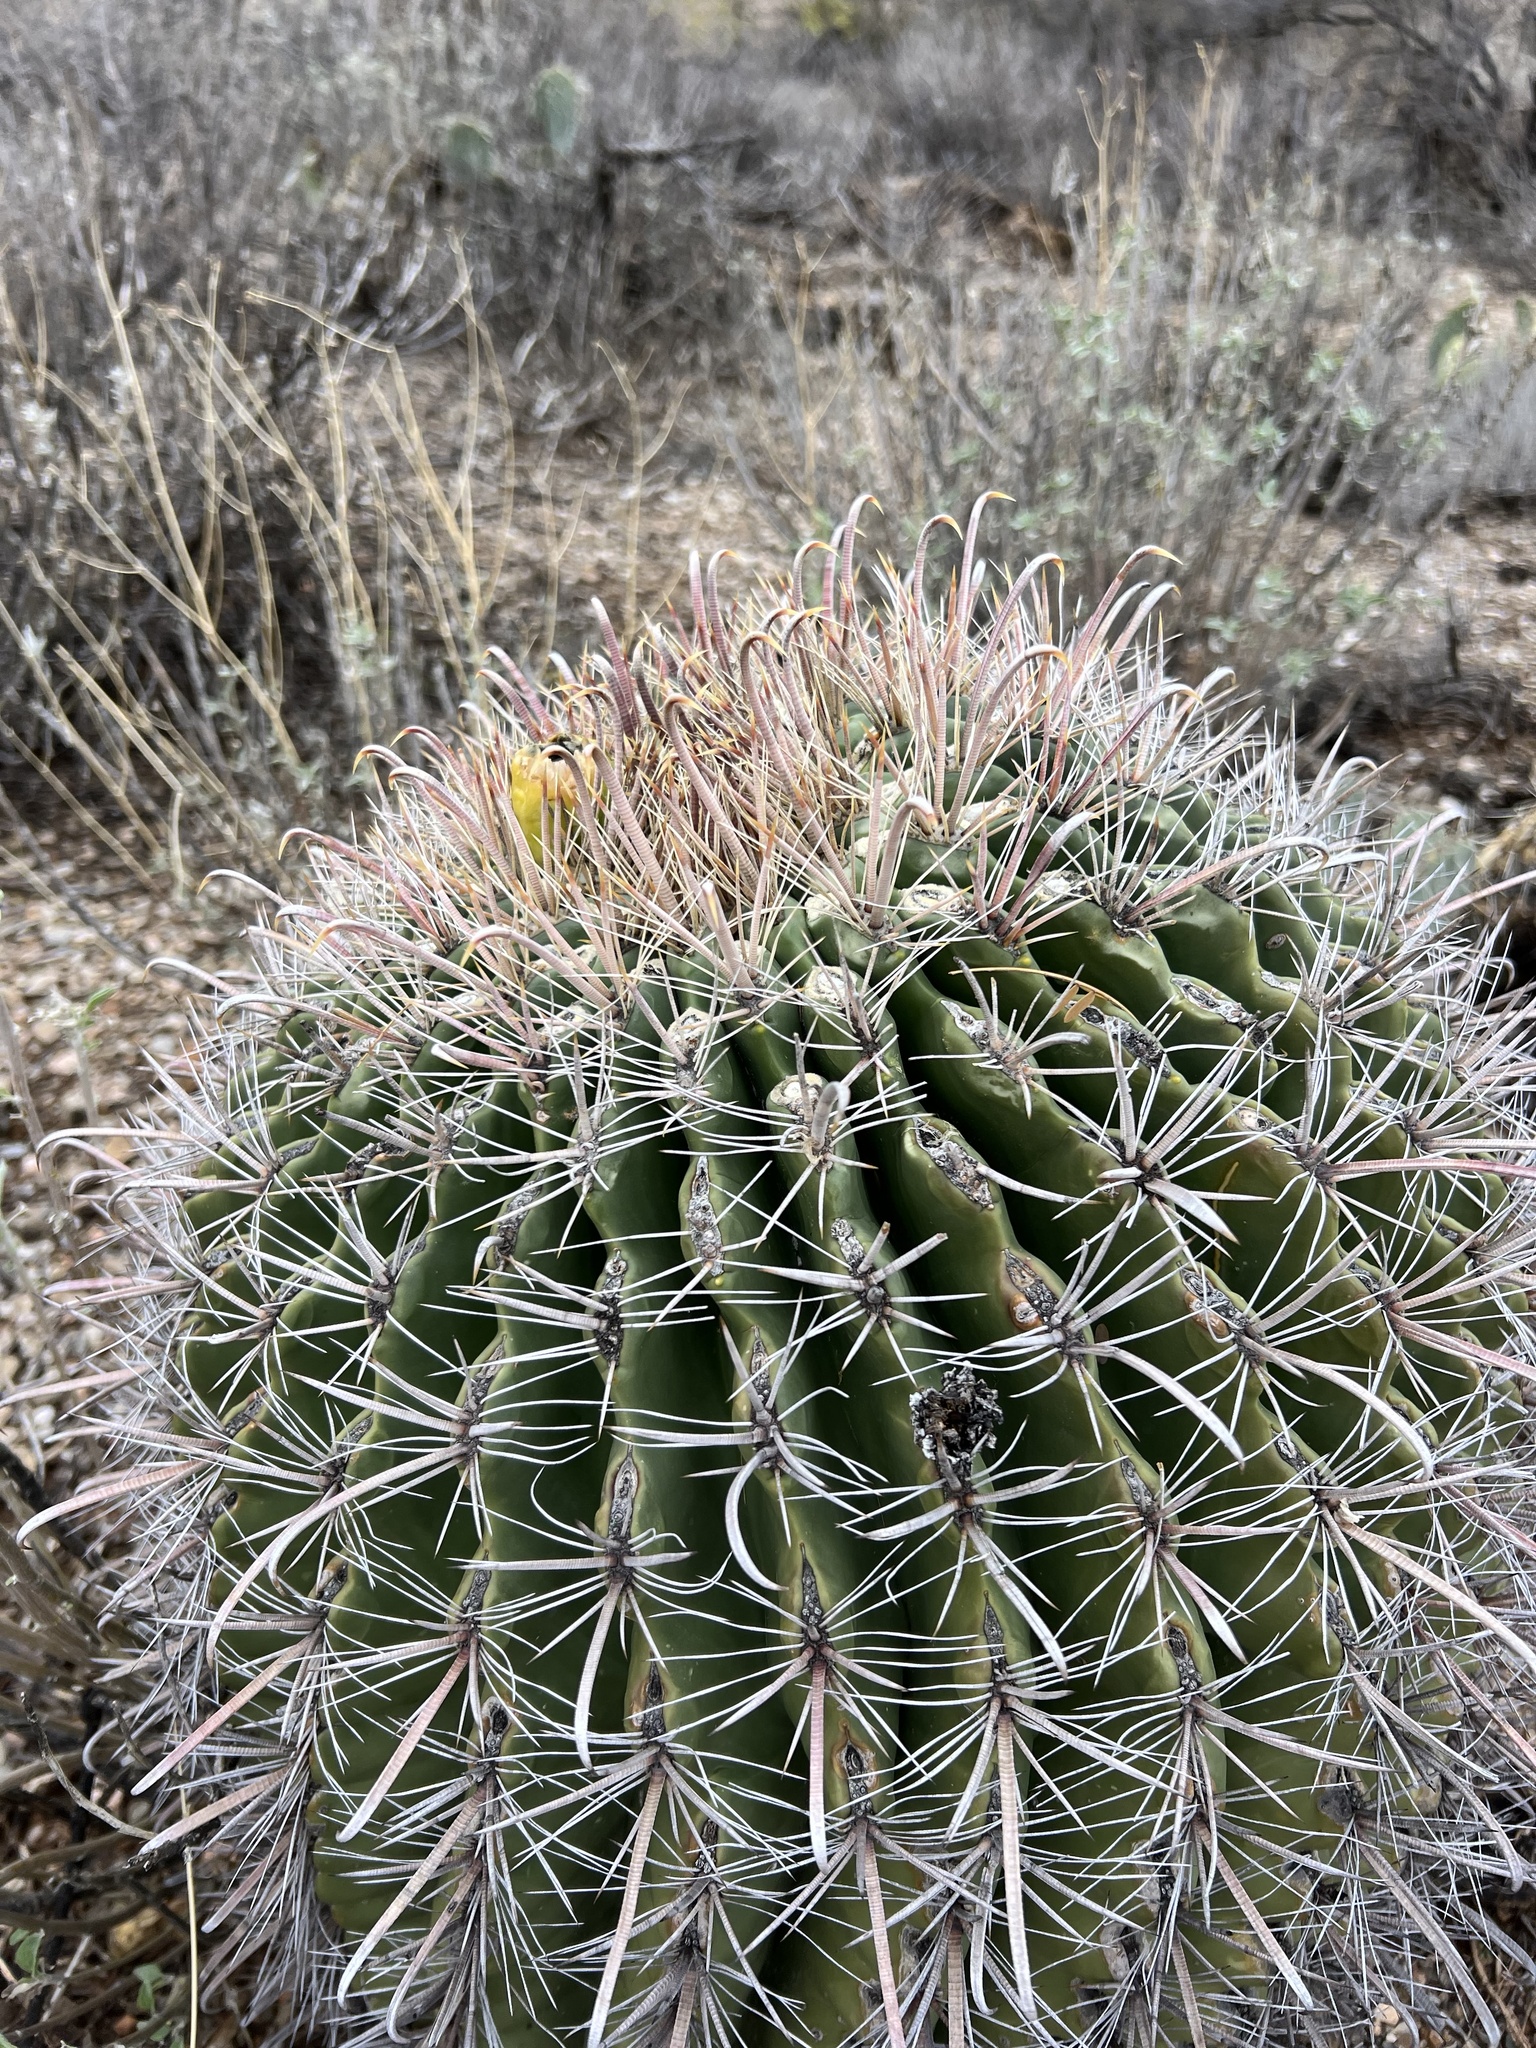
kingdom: Plantae
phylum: Tracheophyta
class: Magnoliopsida
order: Caryophyllales
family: Cactaceae
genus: Ferocactus
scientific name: Ferocactus wislizeni
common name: Candy barrel cactus
